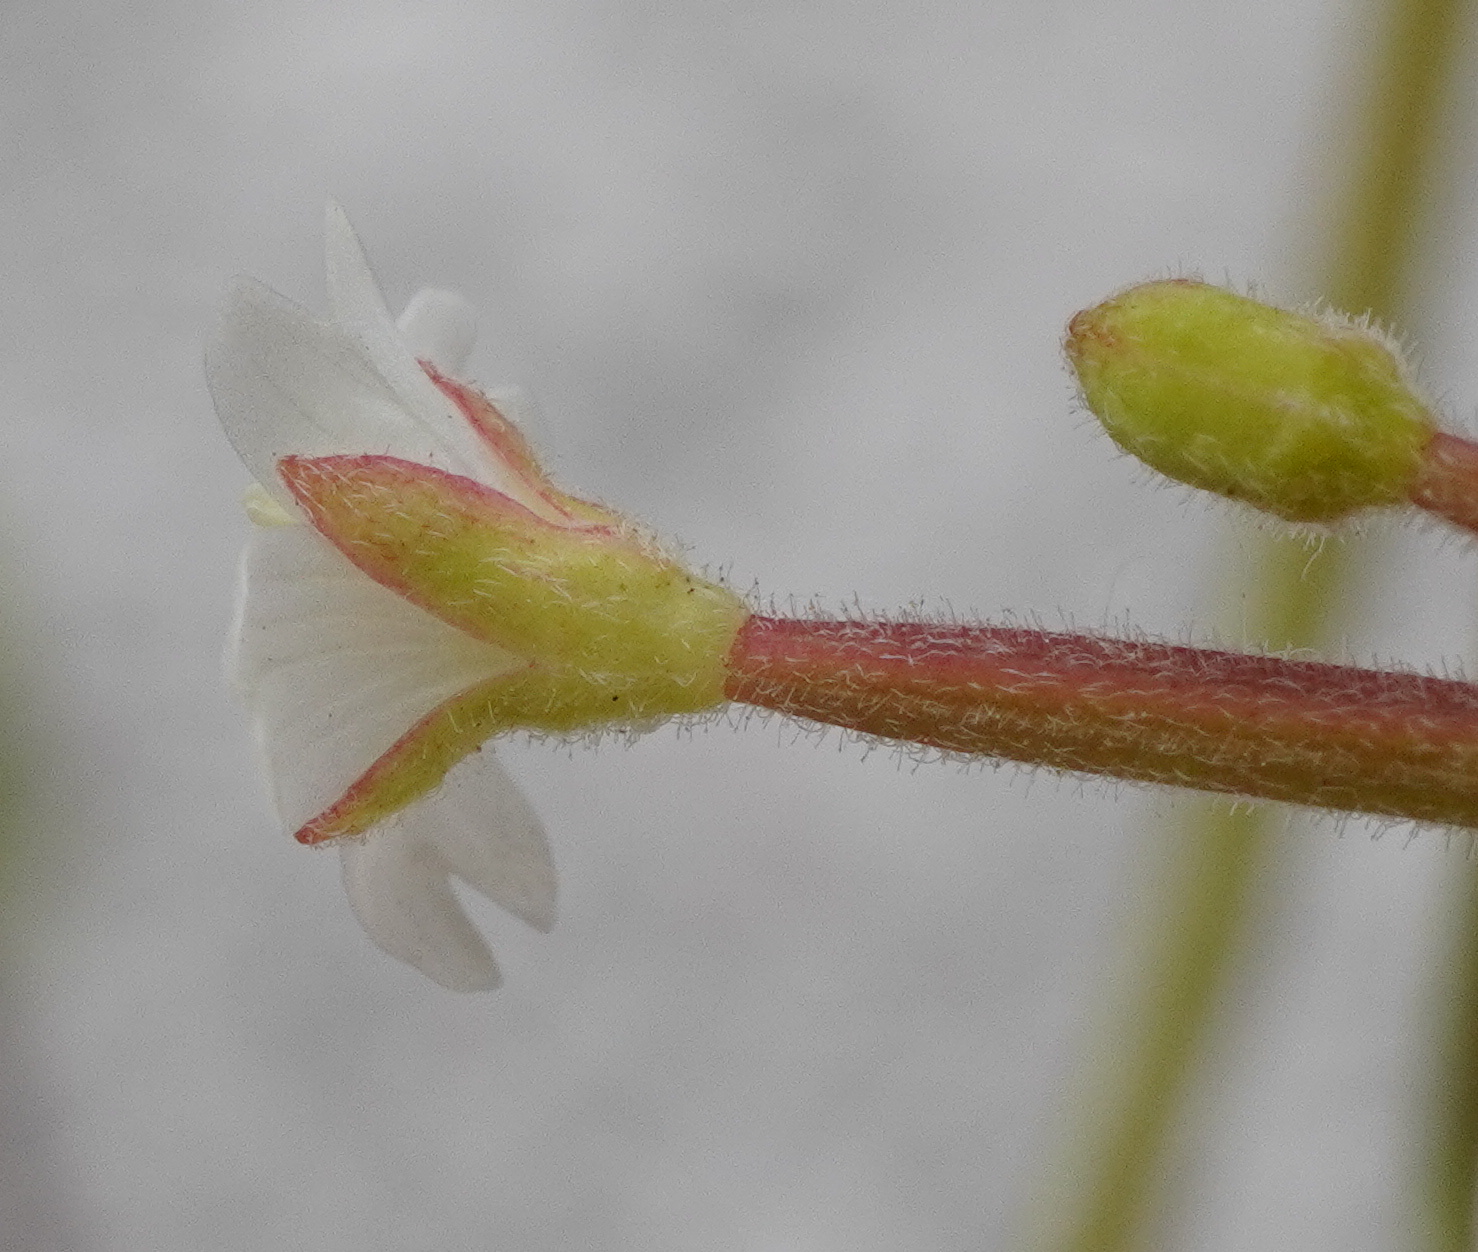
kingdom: Plantae
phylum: Tracheophyta
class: Magnoliopsida
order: Myrtales
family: Onagraceae
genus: Epilobium
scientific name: Epilobium ciliatum
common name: American willowherb
